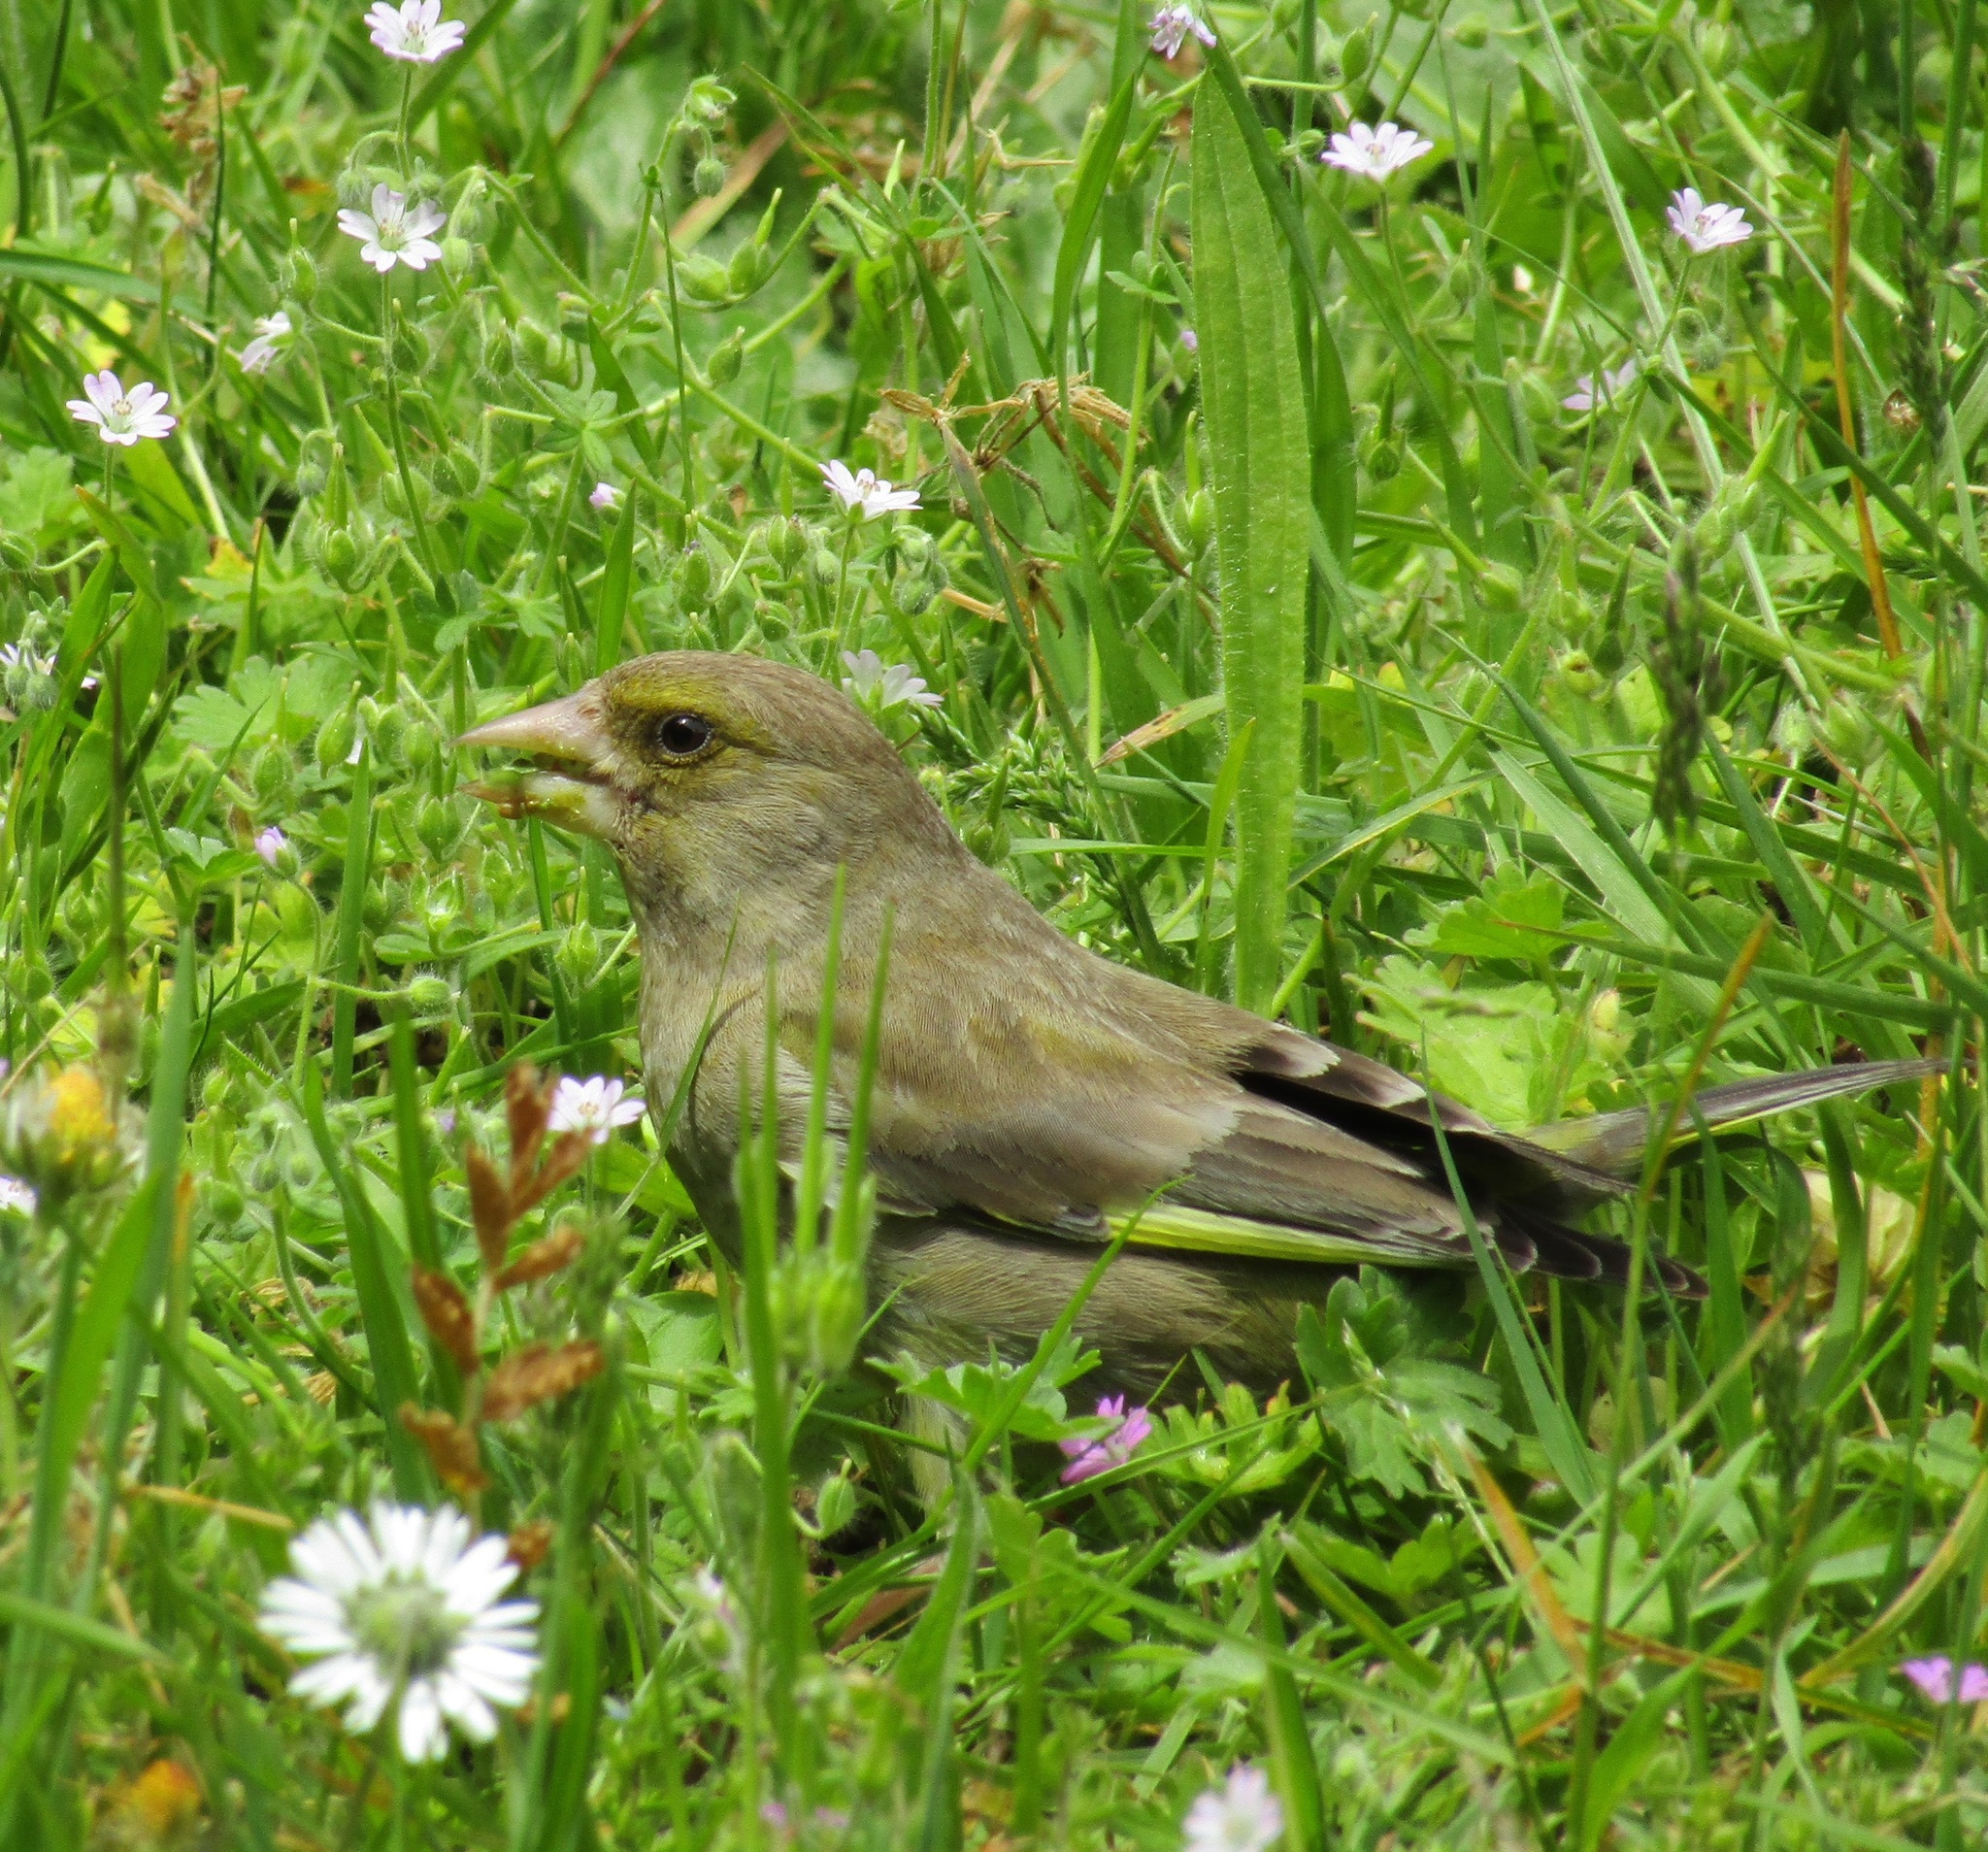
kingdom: Plantae
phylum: Tracheophyta
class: Liliopsida
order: Poales
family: Poaceae
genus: Chloris
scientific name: Chloris chloris
